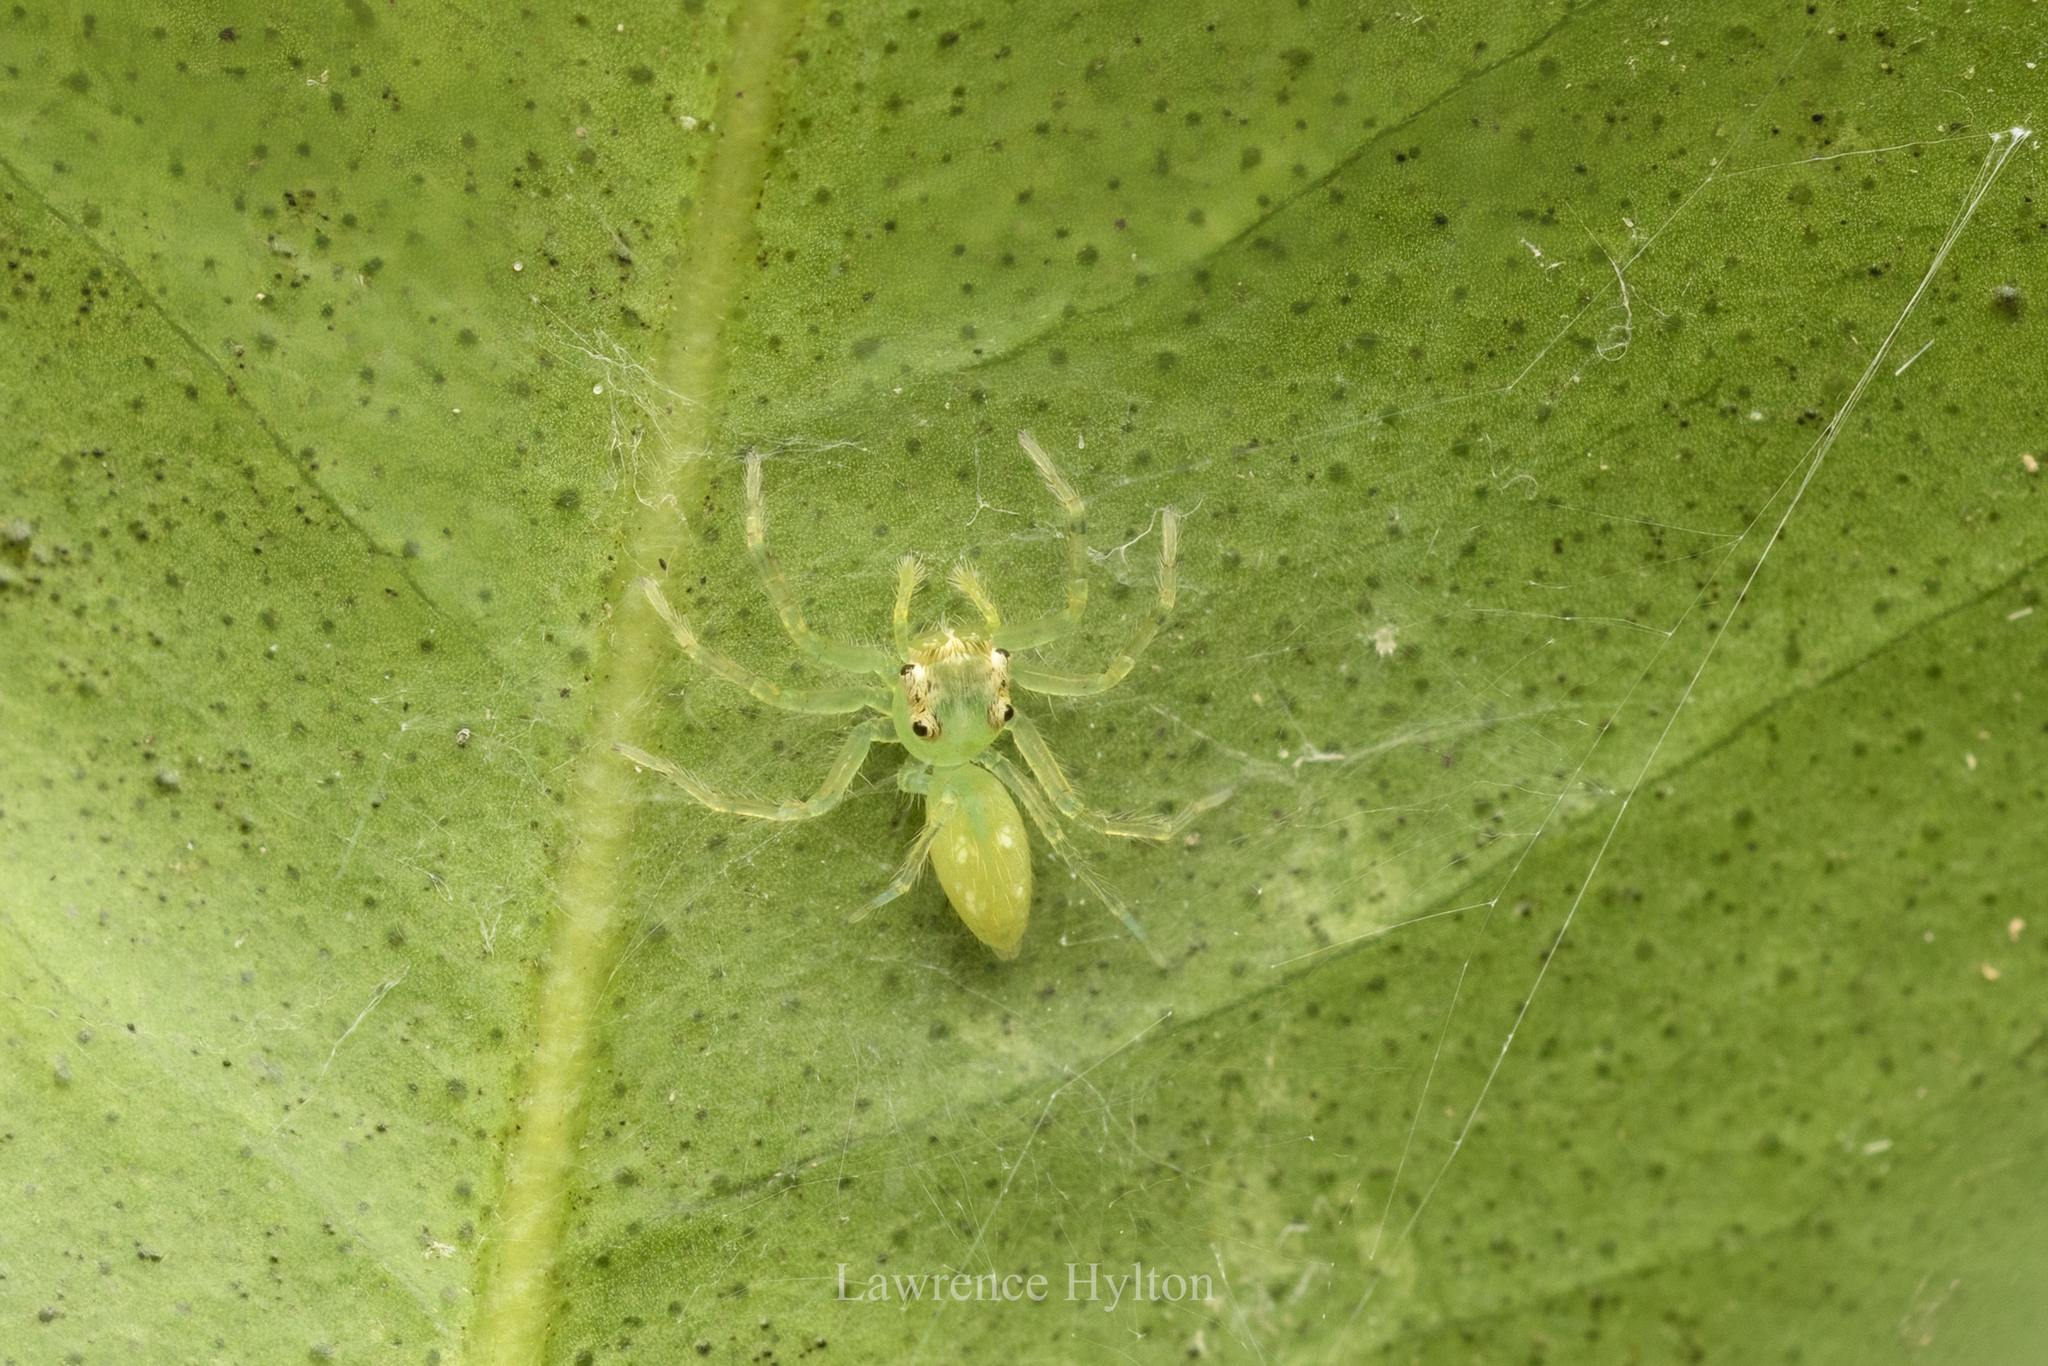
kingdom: Animalia
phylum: Arthropoda
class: Arachnida
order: Araneae
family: Salticidae
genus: Epeus
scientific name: Epeus glorius
